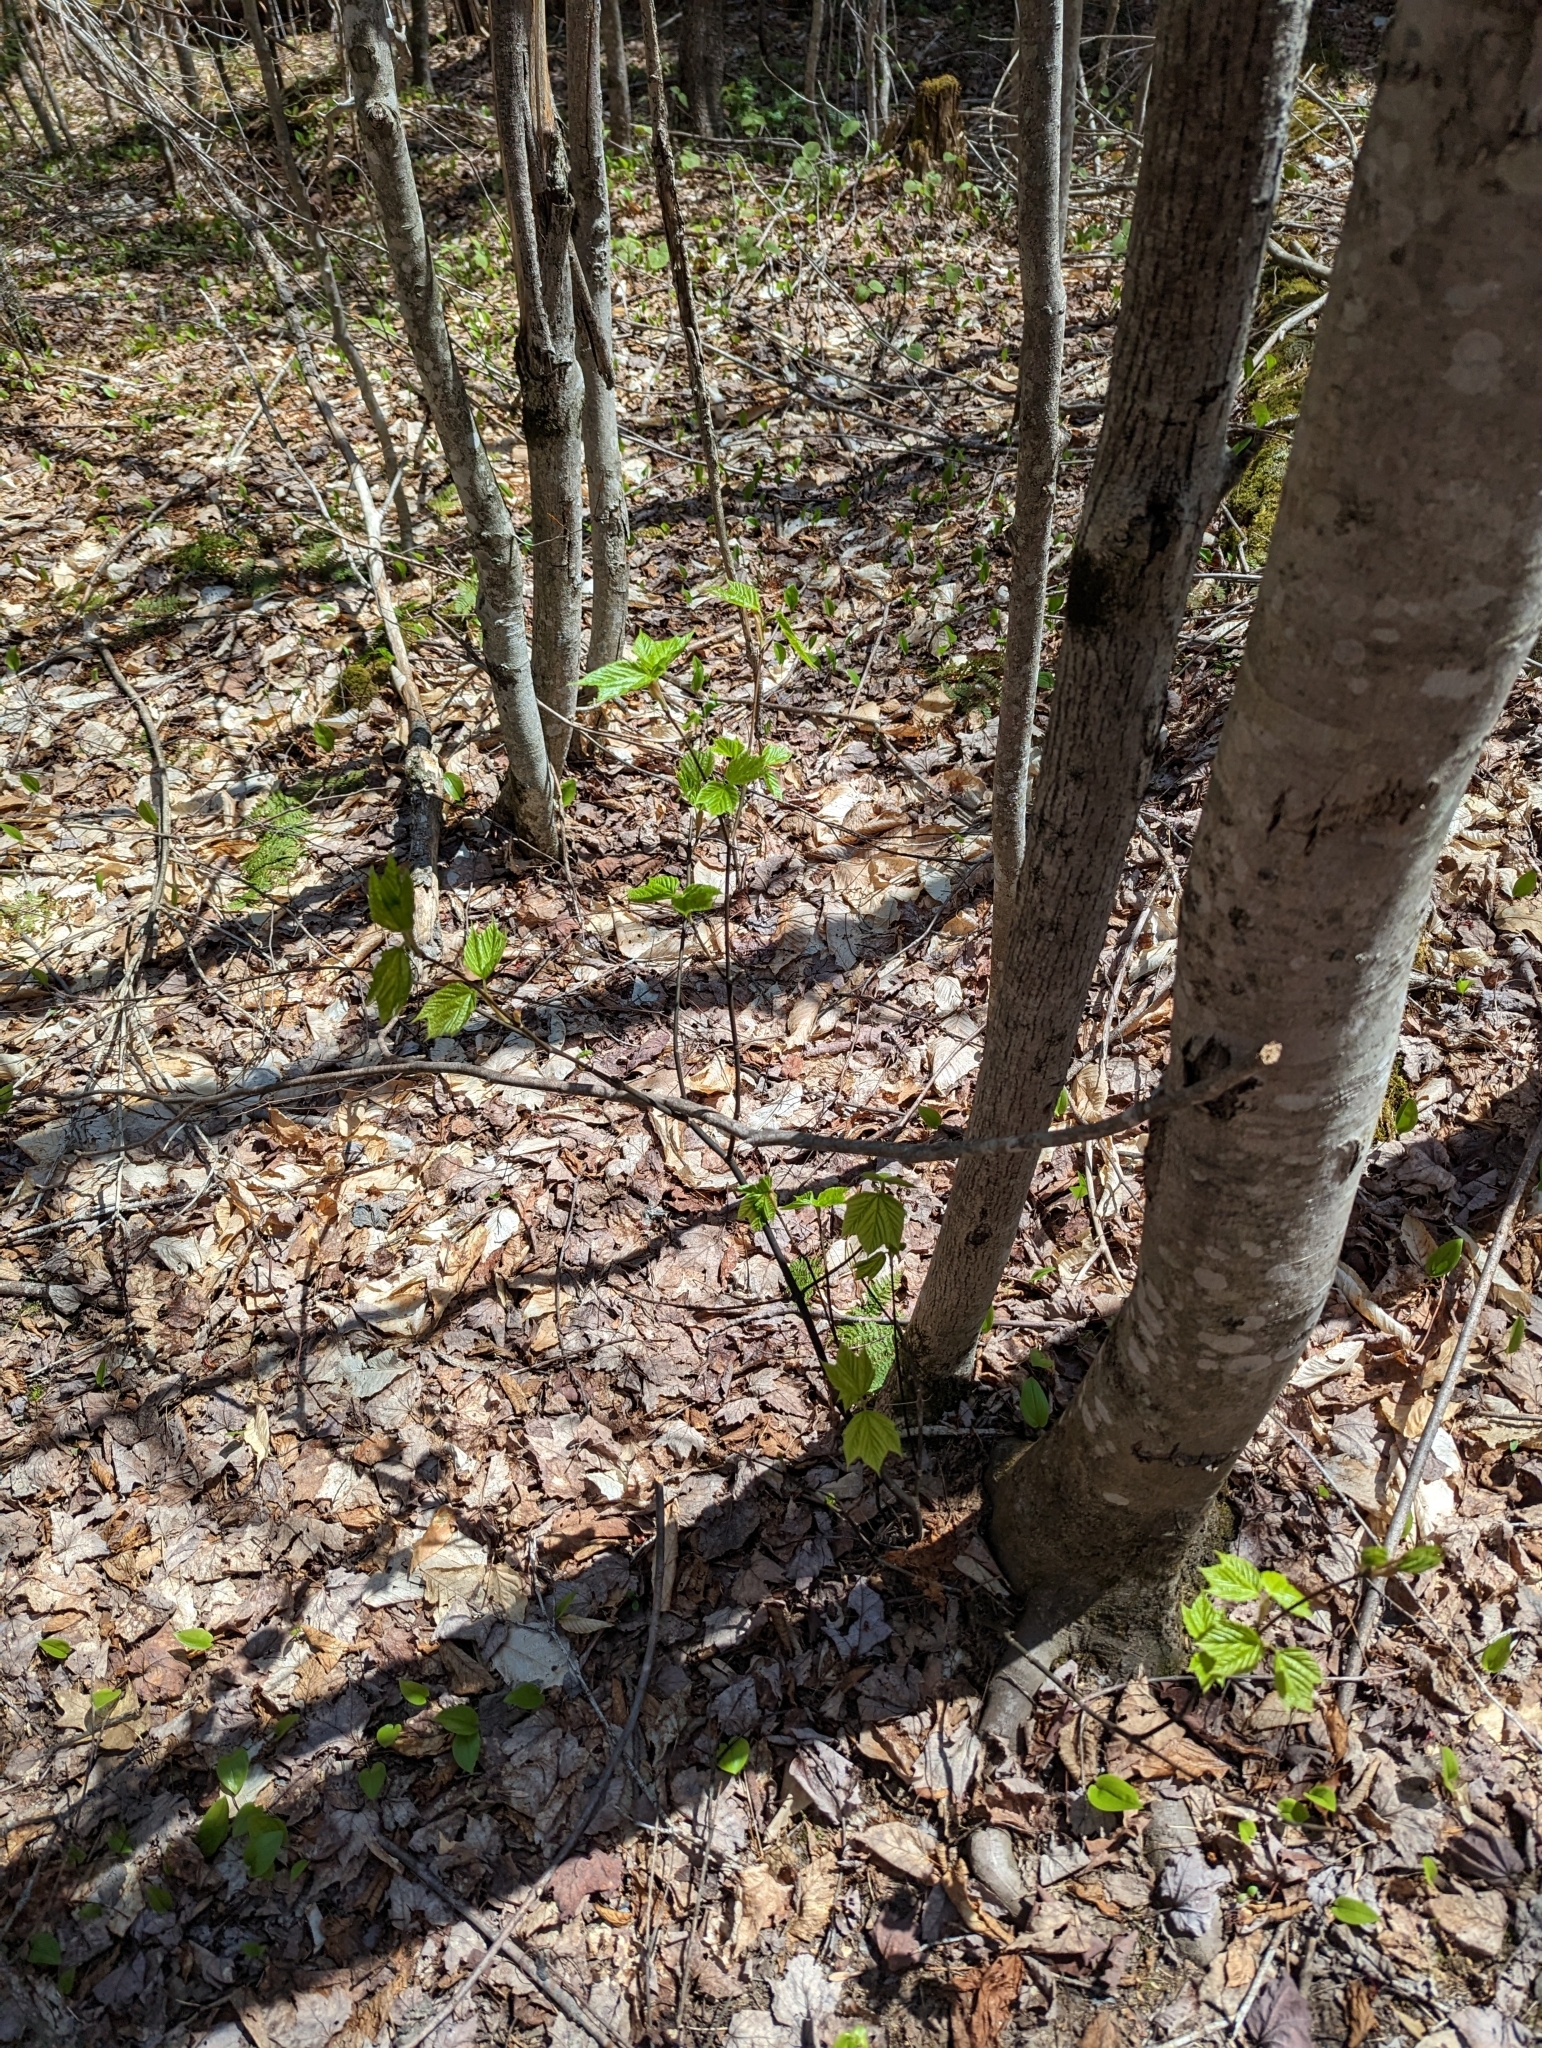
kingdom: Plantae
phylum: Tracheophyta
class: Magnoliopsida
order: Sapindales
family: Sapindaceae
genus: Acer
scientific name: Acer pensylvanicum
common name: Moosewood
